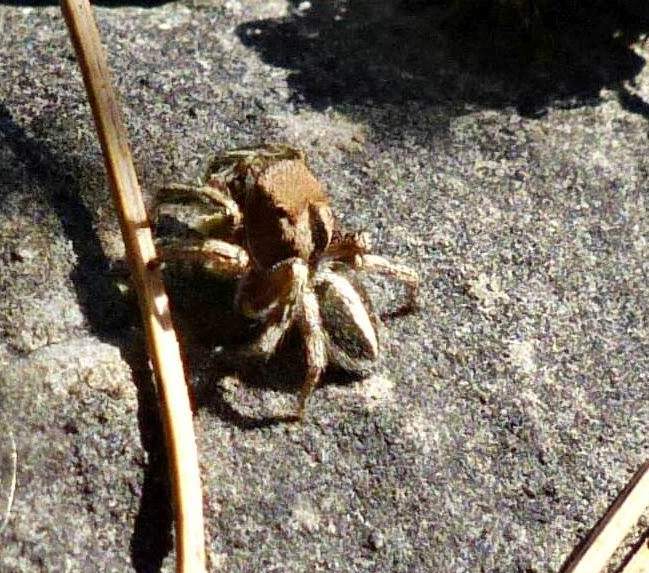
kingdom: Animalia
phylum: Arthropoda
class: Arachnida
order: Araneae
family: Salticidae
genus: Habronattus
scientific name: Habronattus calcaratus
